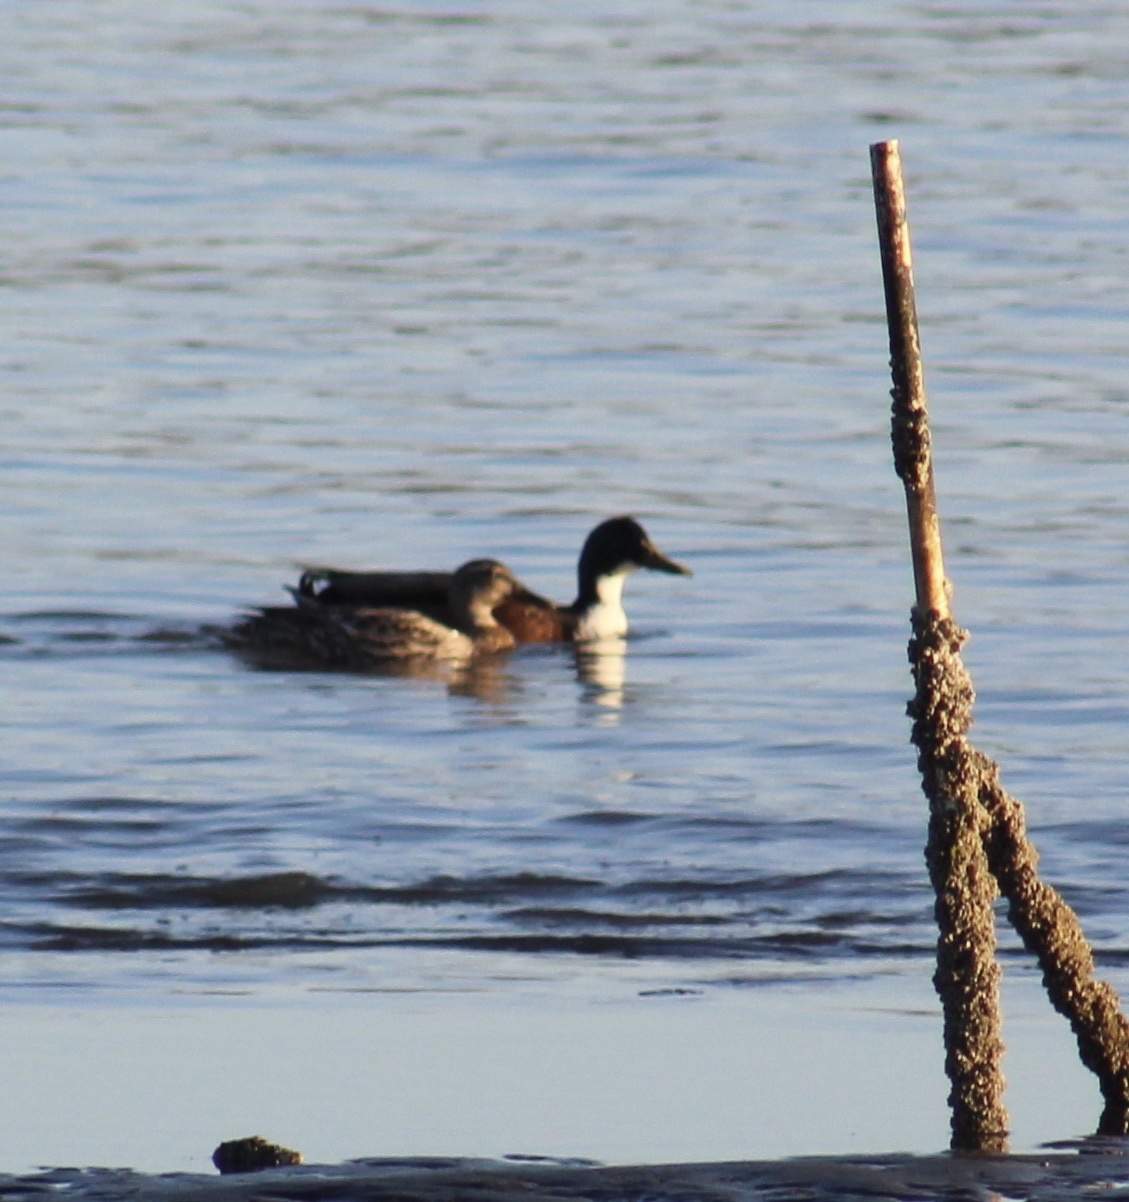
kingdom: Animalia
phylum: Chordata
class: Aves
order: Anseriformes
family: Anatidae
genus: Spatula
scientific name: Spatula clypeata
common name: Northern shoveler
